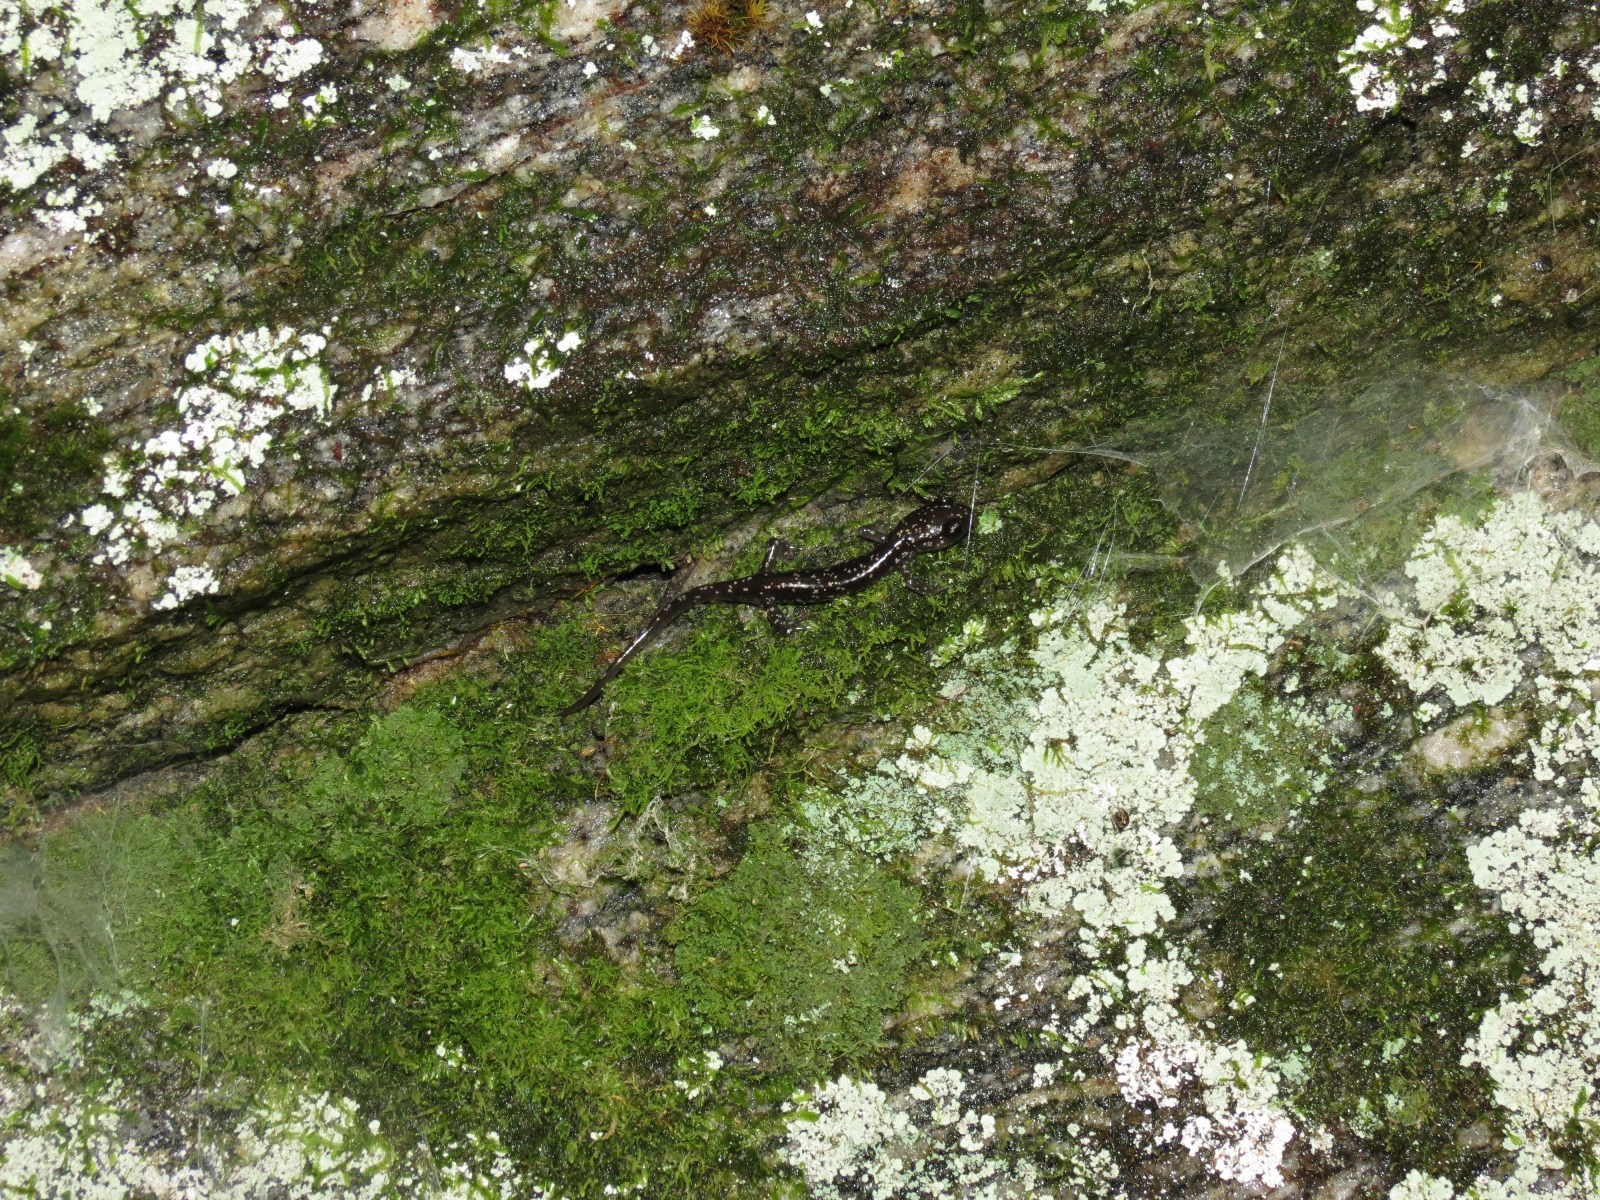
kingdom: Animalia
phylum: Chordata
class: Amphibia
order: Caudata
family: Plethodontidae
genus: Plethodon
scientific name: Plethodon yonahlossee
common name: Yonahlossee salamander
